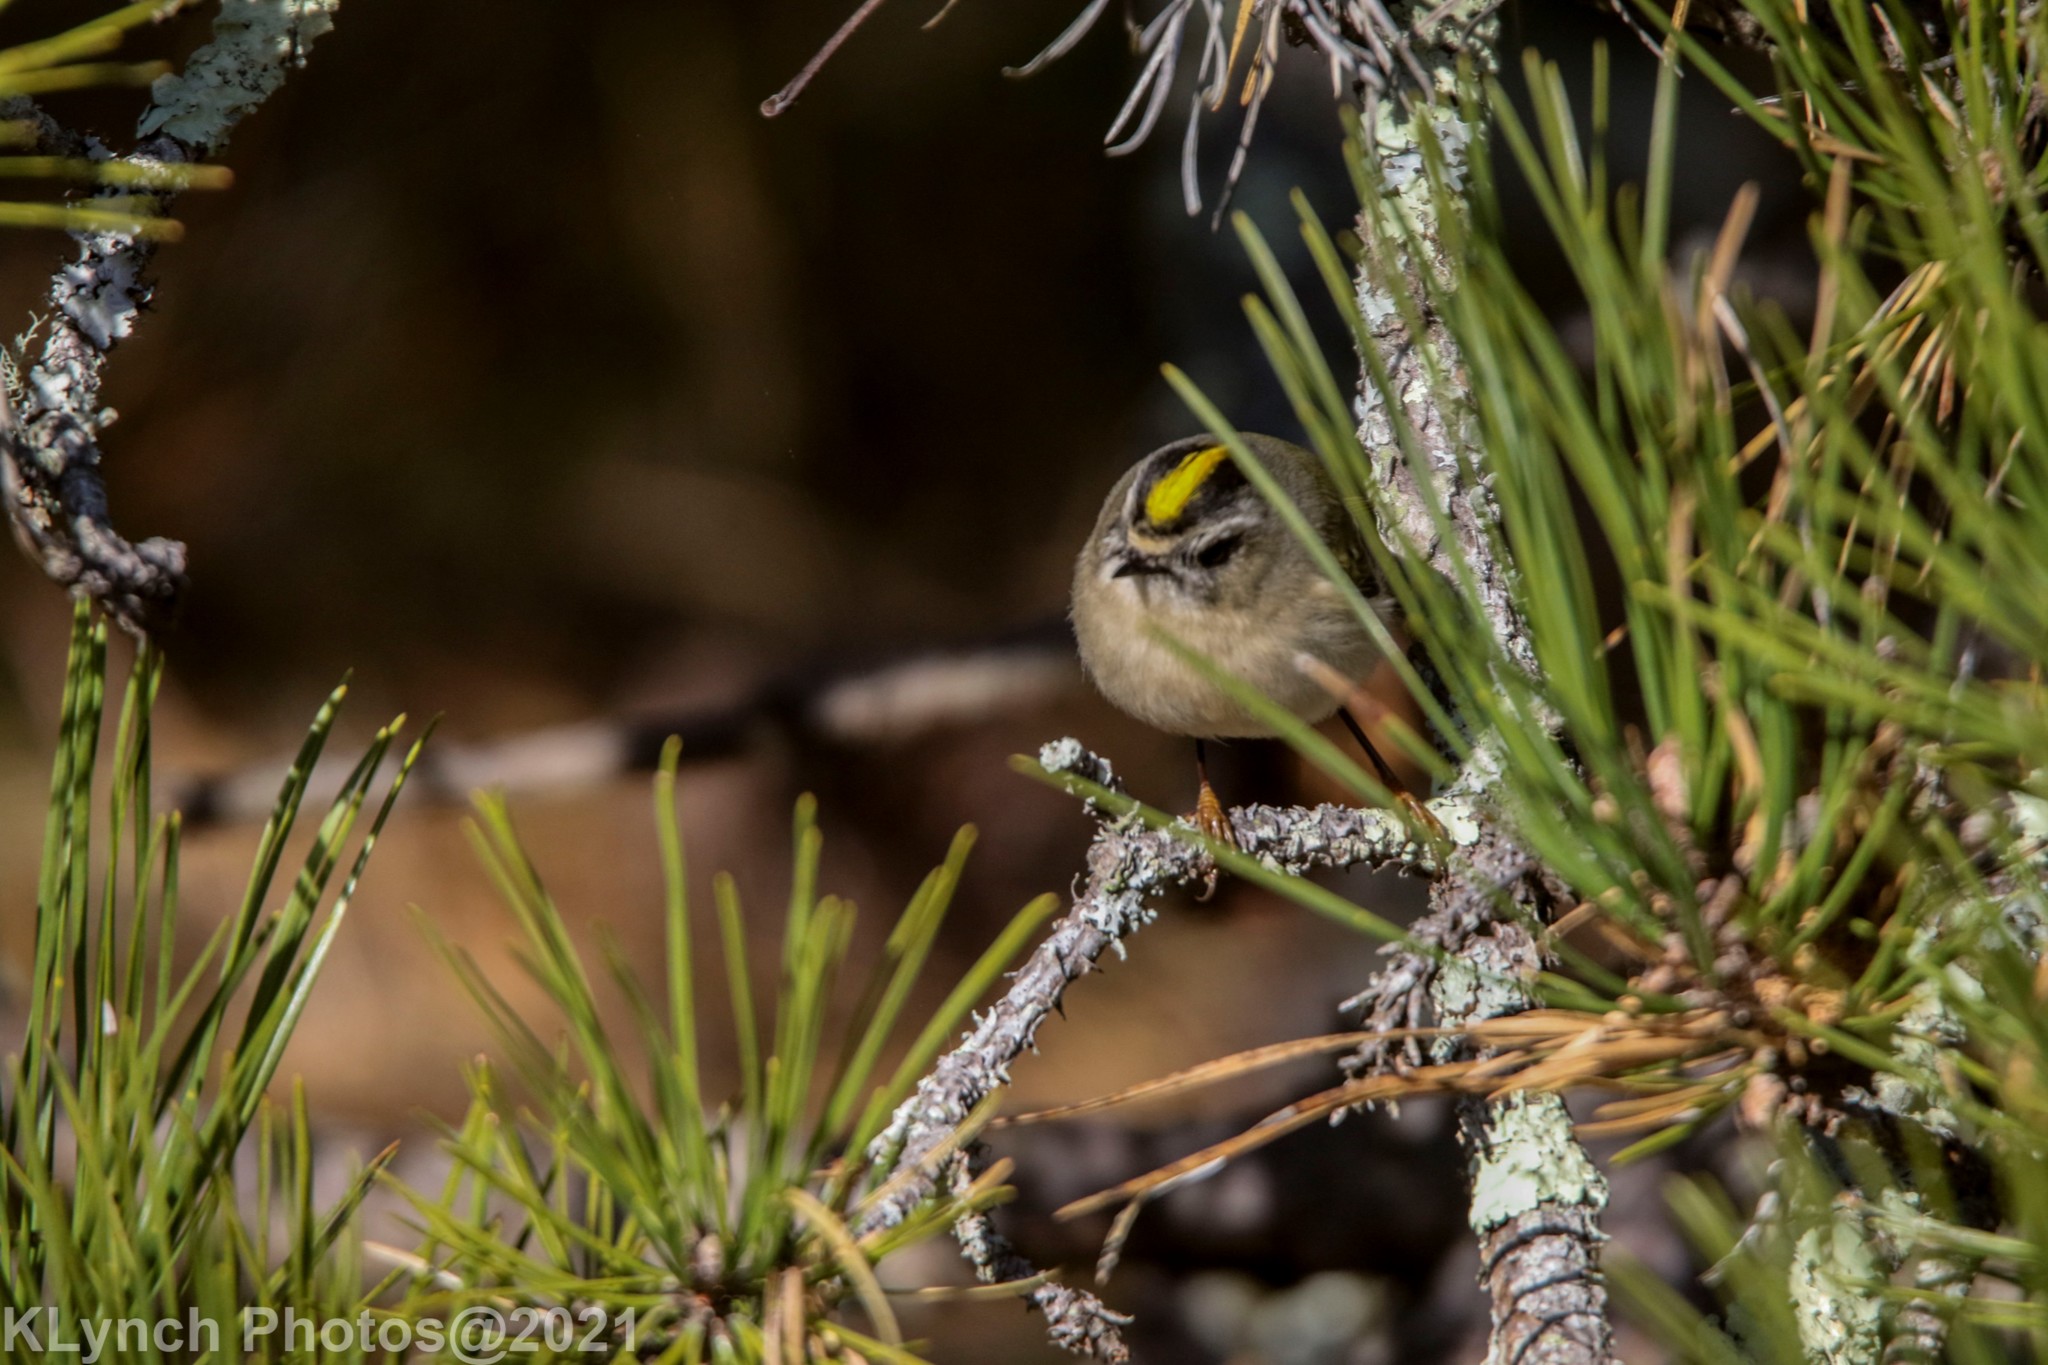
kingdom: Animalia
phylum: Chordata
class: Aves
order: Passeriformes
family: Regulidae
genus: Regulus
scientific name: Regulus satrapa
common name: Golden-crowned kinglet
